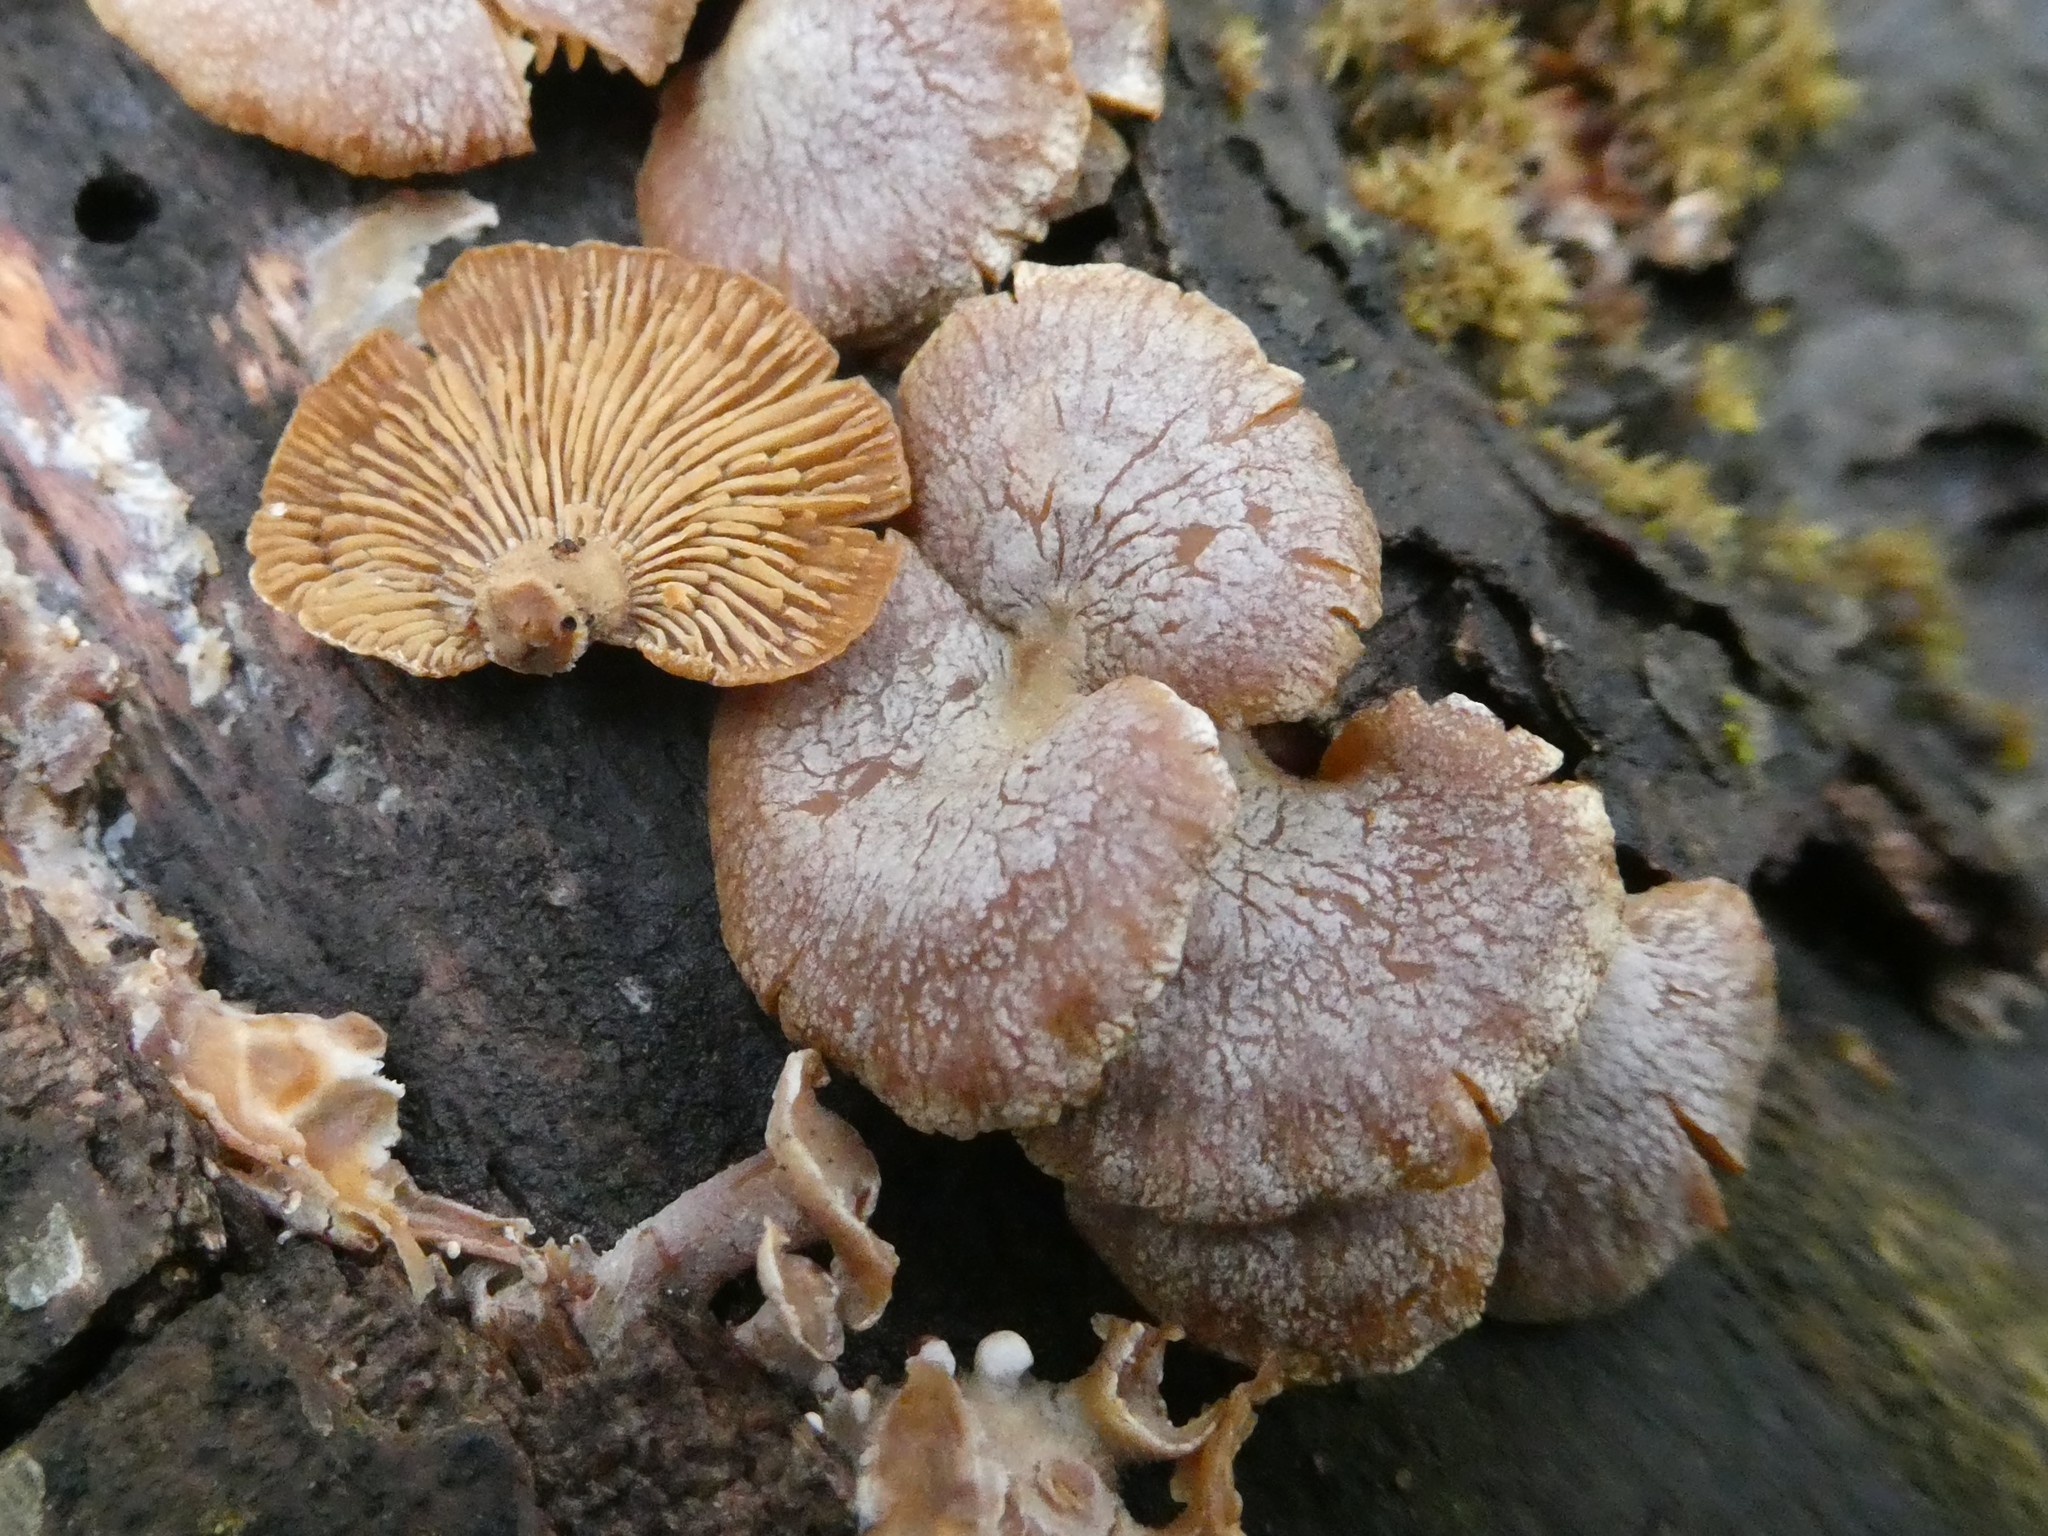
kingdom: Fungi
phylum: Basidiomycota
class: Agaricomycetes
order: Agaricales
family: Mycenaceae
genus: Panellus
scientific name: Panellus stipticus
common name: Bitter oysterling
